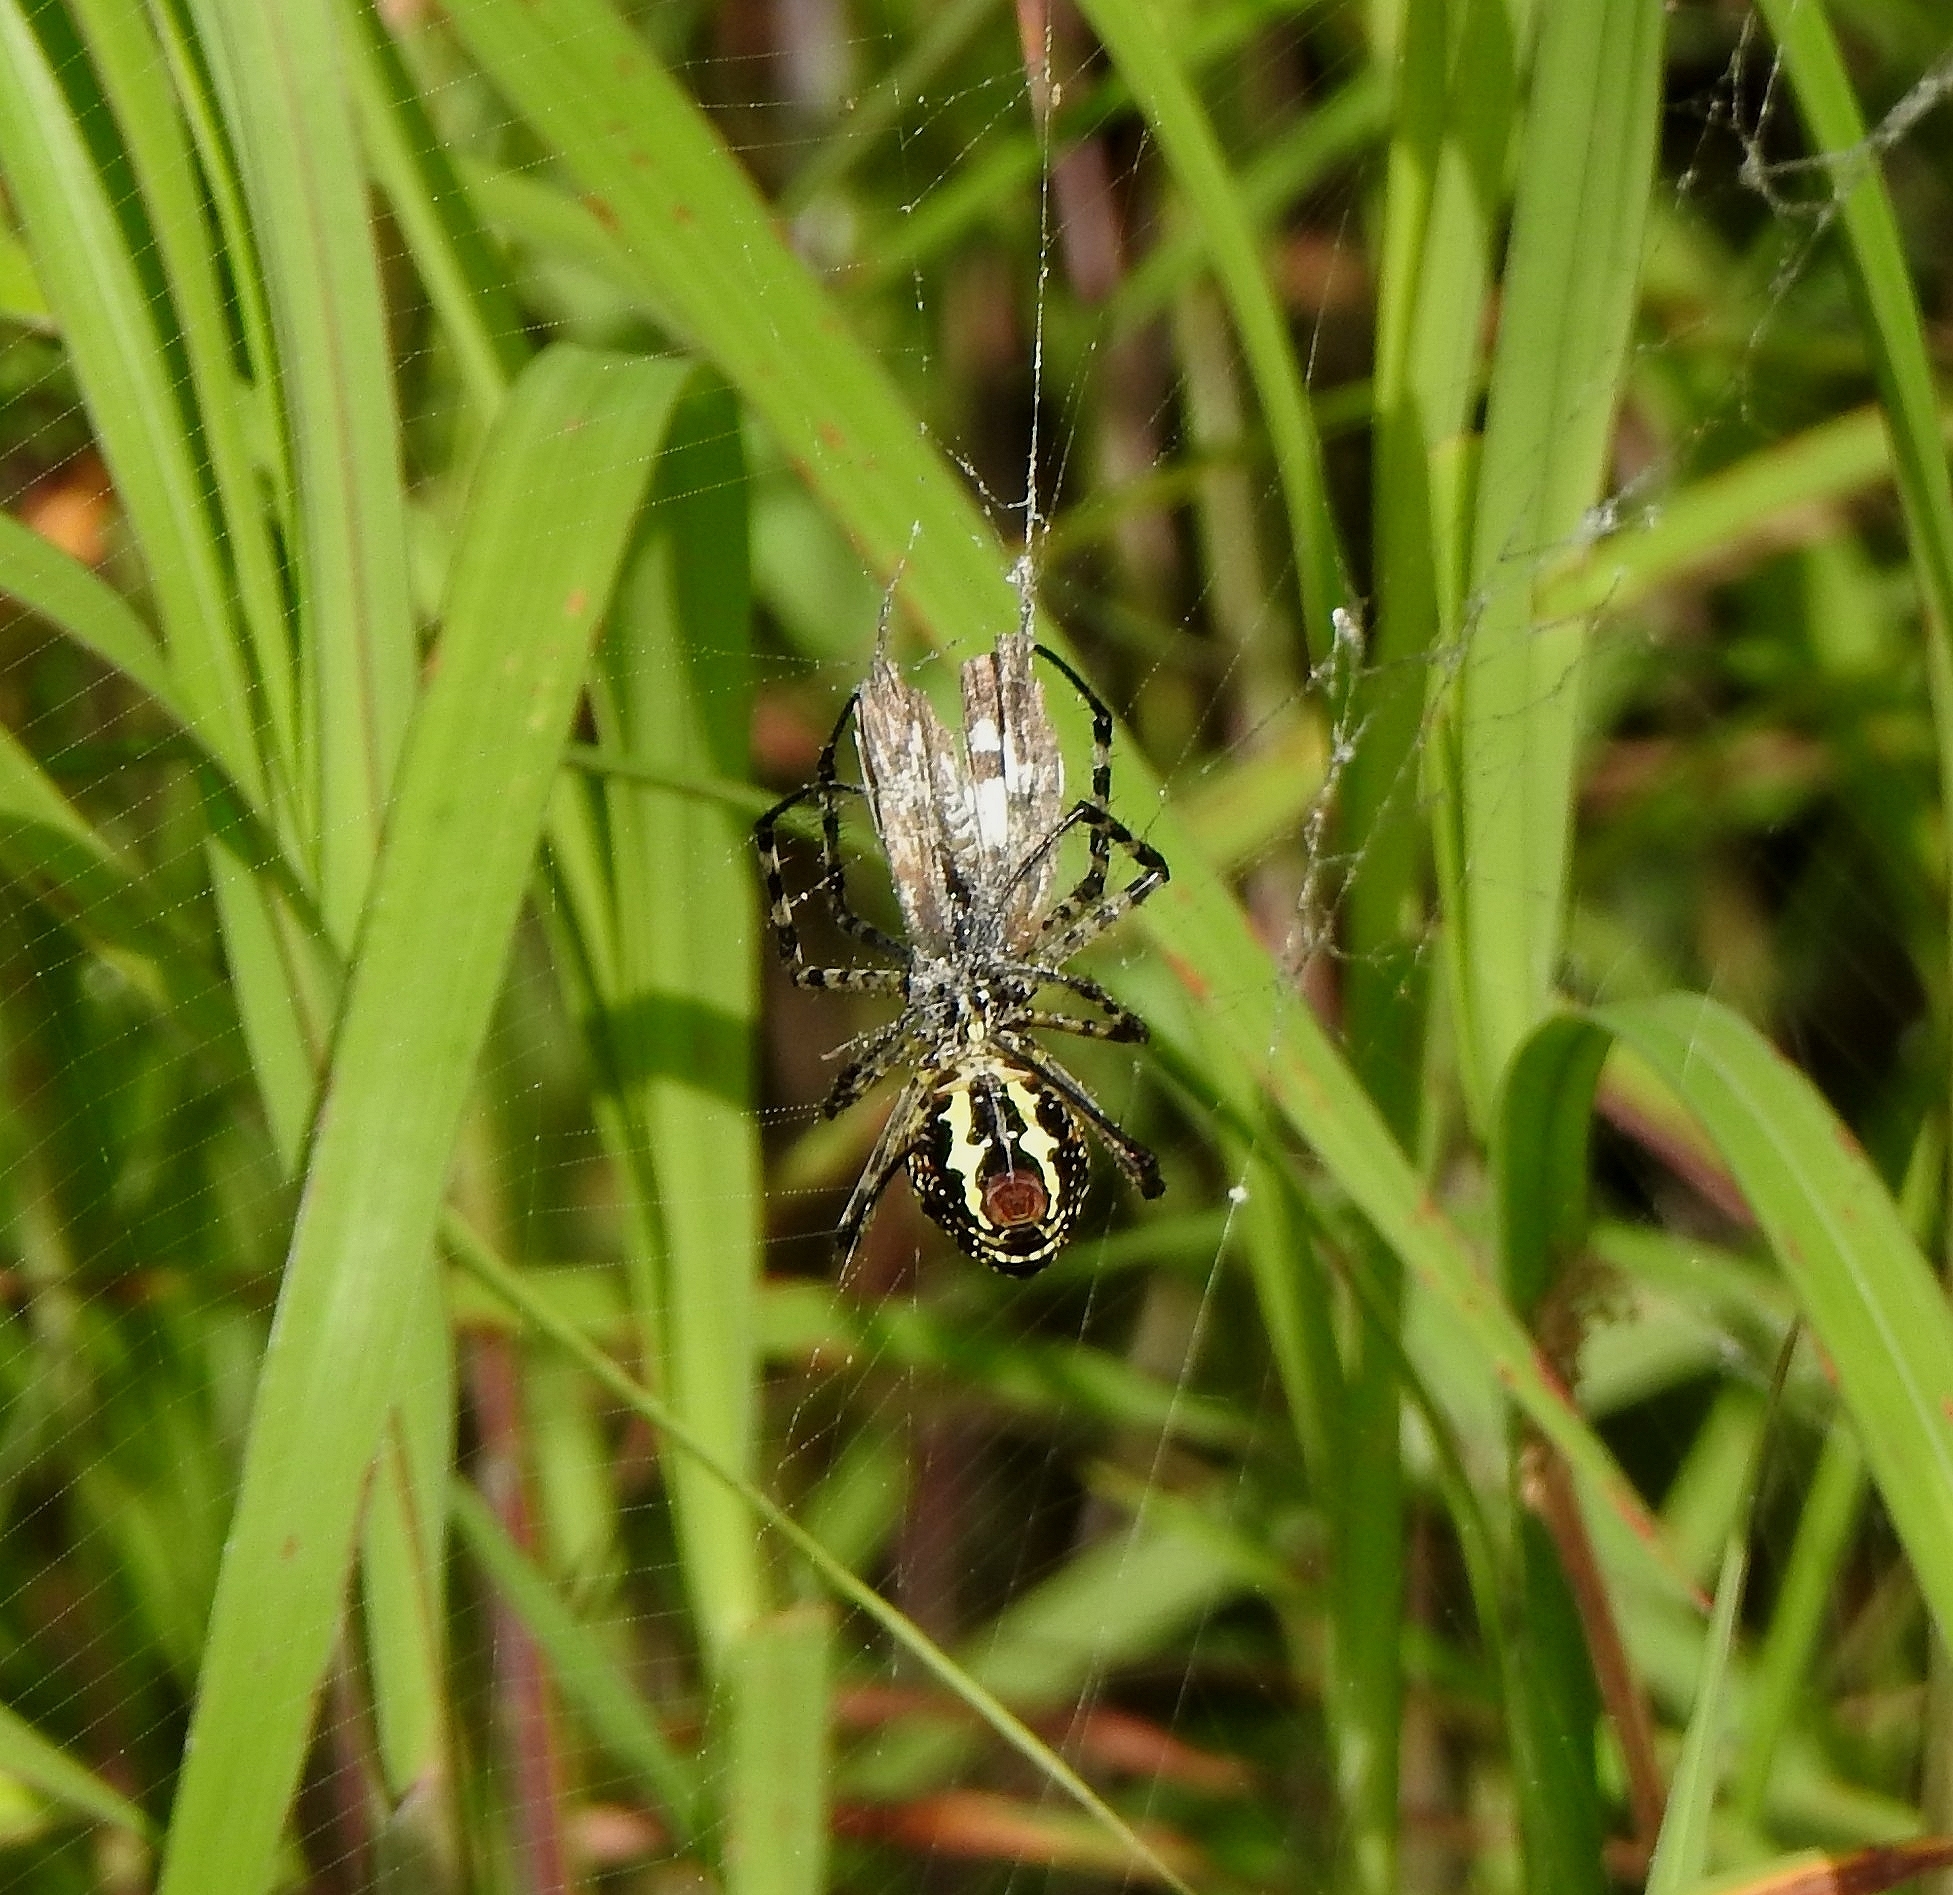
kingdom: Animalia
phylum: Arthropoda
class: Arachnida
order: Araneae
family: Araneidae
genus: Argiope
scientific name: Argiope aemula
